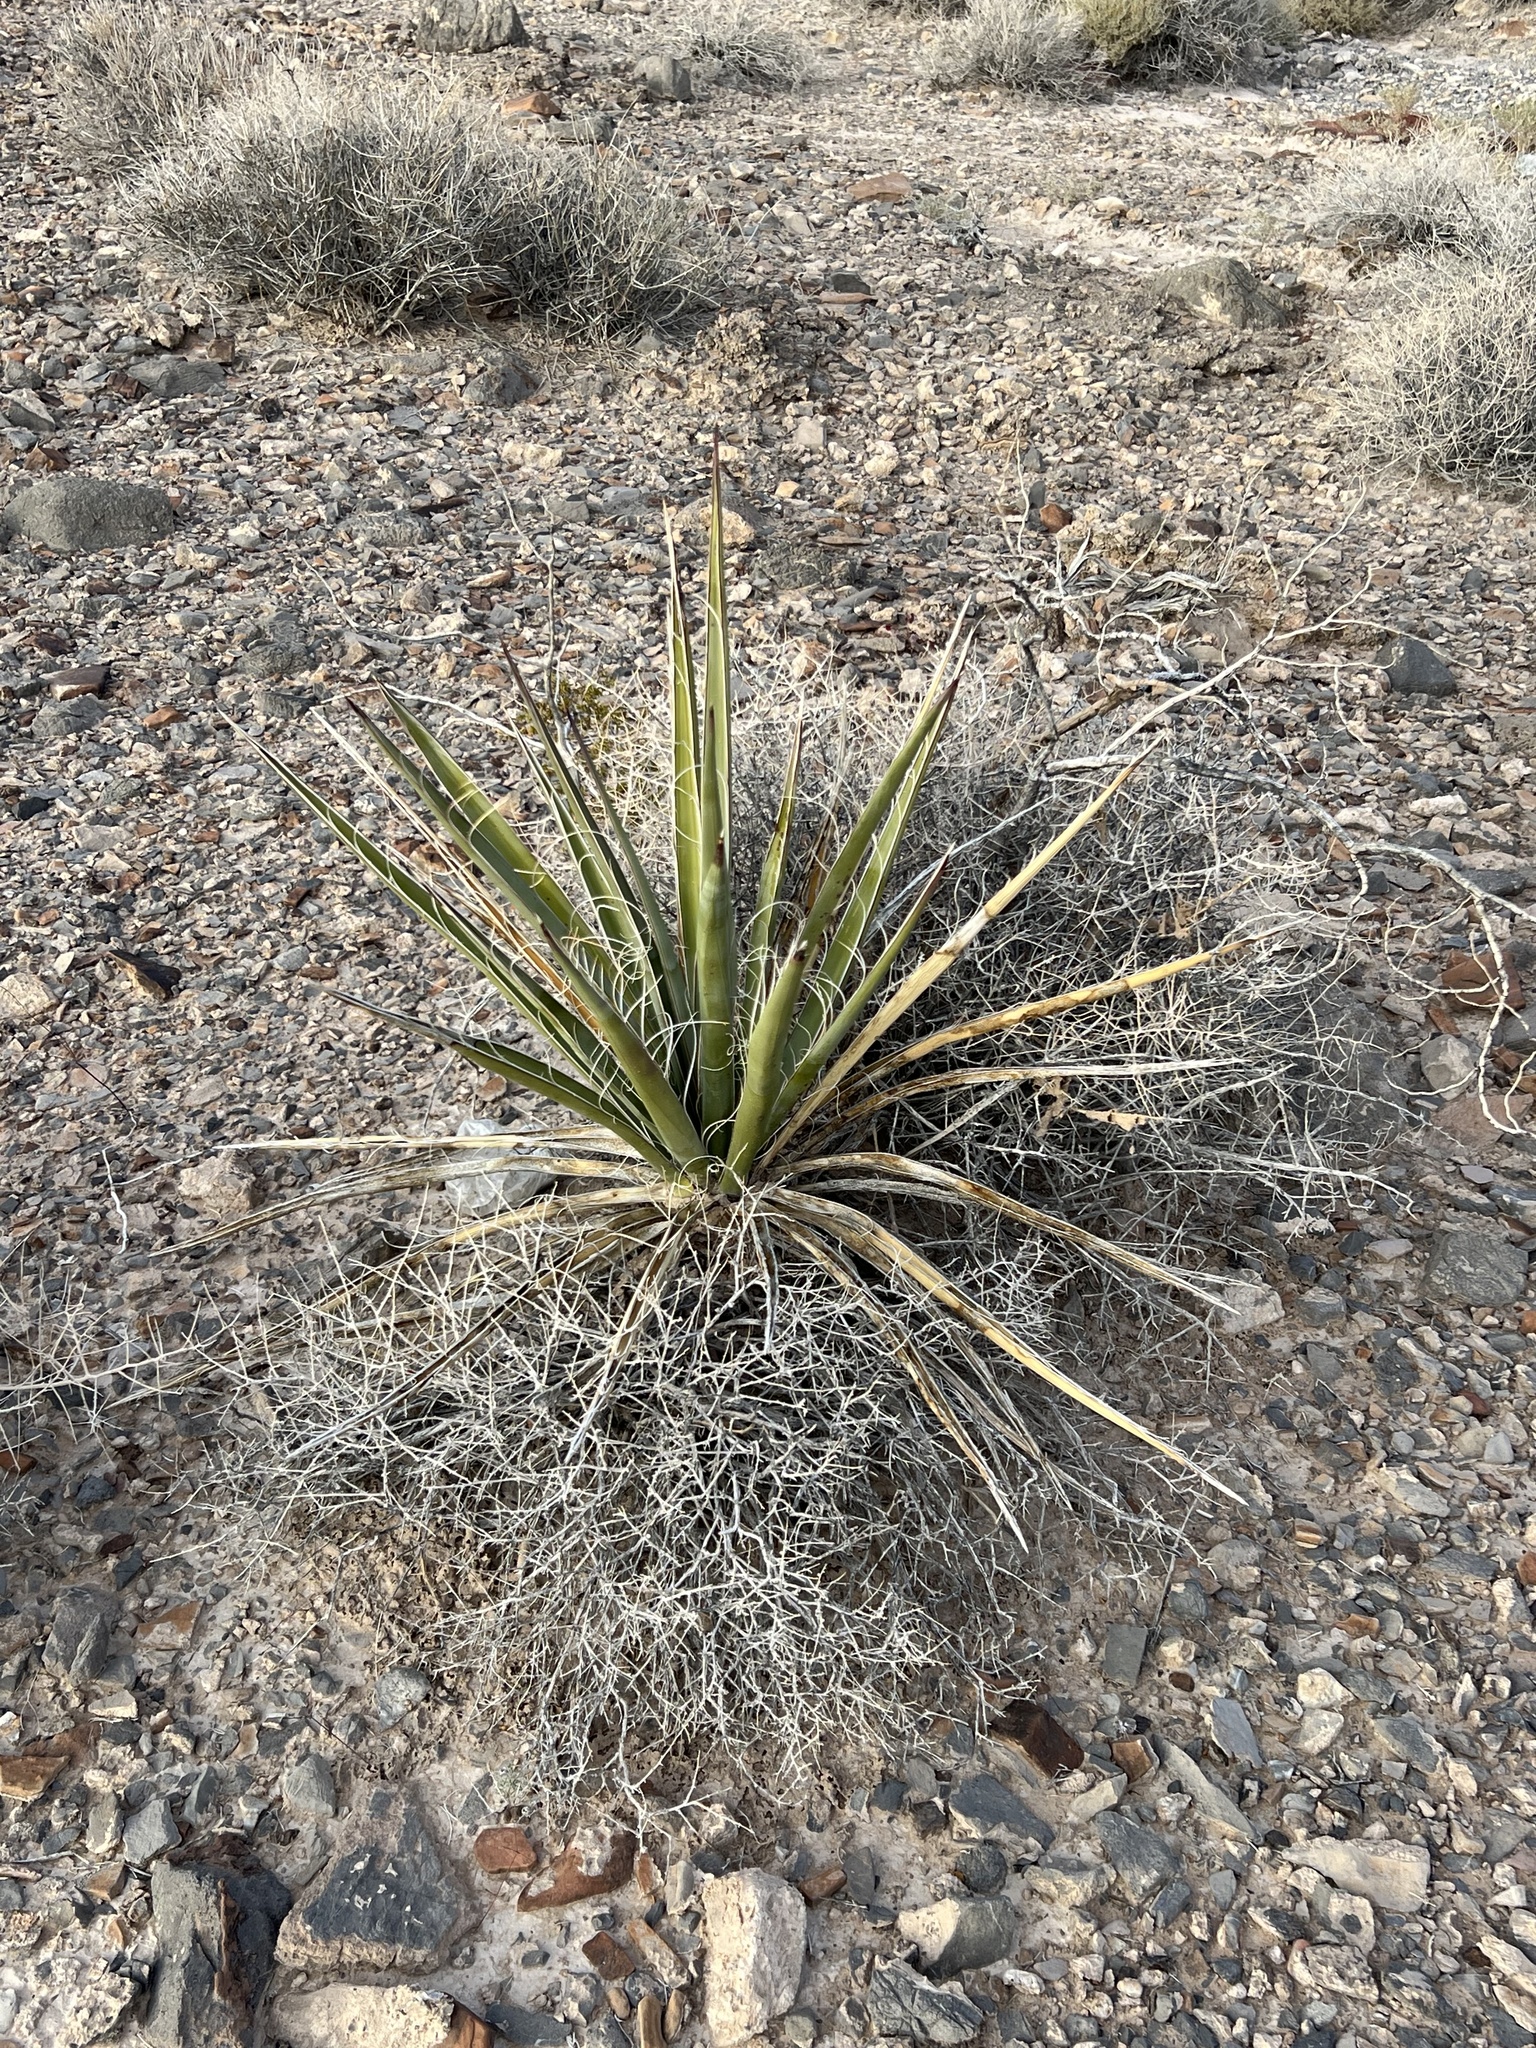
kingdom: Plantae
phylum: Tracheophyta
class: Liliopsida
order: Asparagales
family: Asparagaceae
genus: Yucca
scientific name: Yucca schidigera
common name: Mojave yucca
